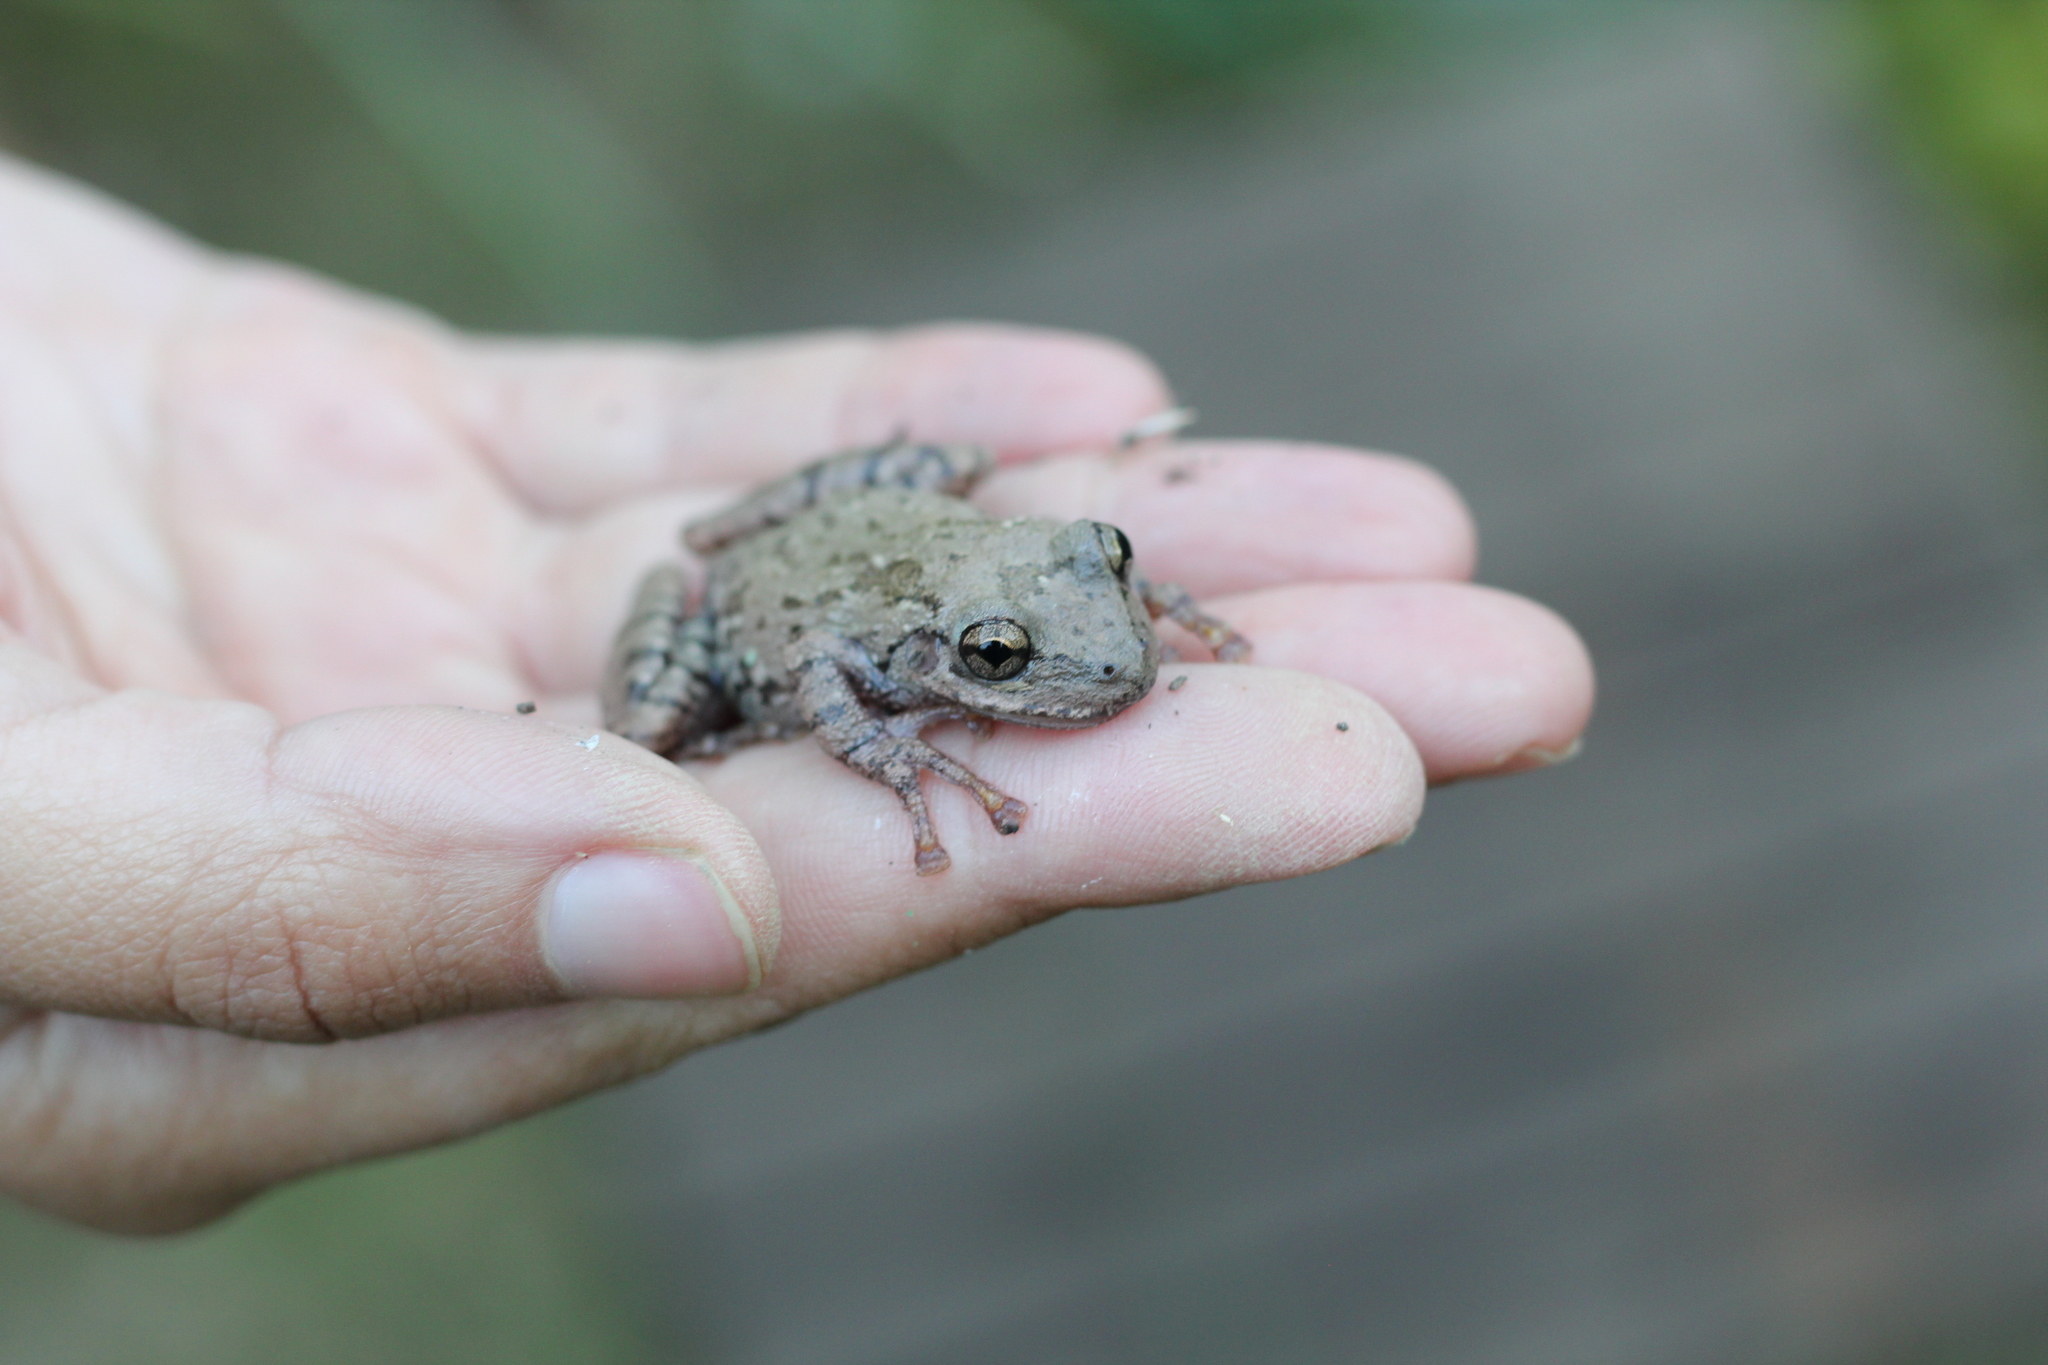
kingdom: Animalia
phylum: Chordata
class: Amphibia
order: Anura
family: Hylidae
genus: Scinax
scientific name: Scinax granulatus
